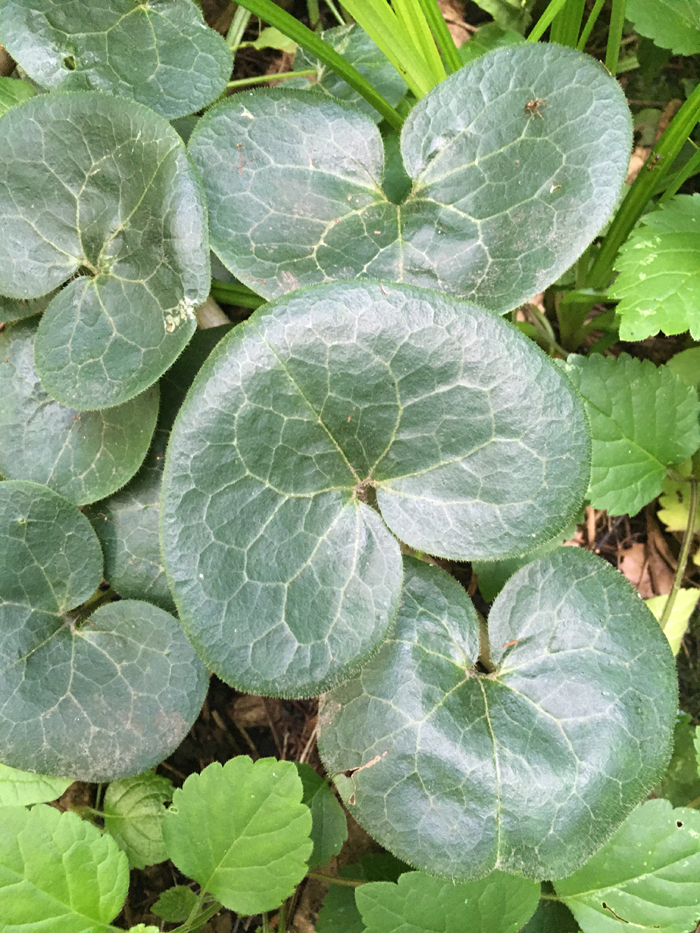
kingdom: Plantae
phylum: Tracheophyta
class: Magnoliopsida
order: Piperales
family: Aristolochiaceae
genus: Asarum
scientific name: Asarum europaeum
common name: Asarabacca
